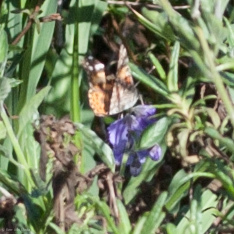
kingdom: Animalia
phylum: Arthropoda
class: Insecta
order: Lepidoptera
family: Nymphalidae
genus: Vanessa
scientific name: Vanessa cardui
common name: Painted lady
